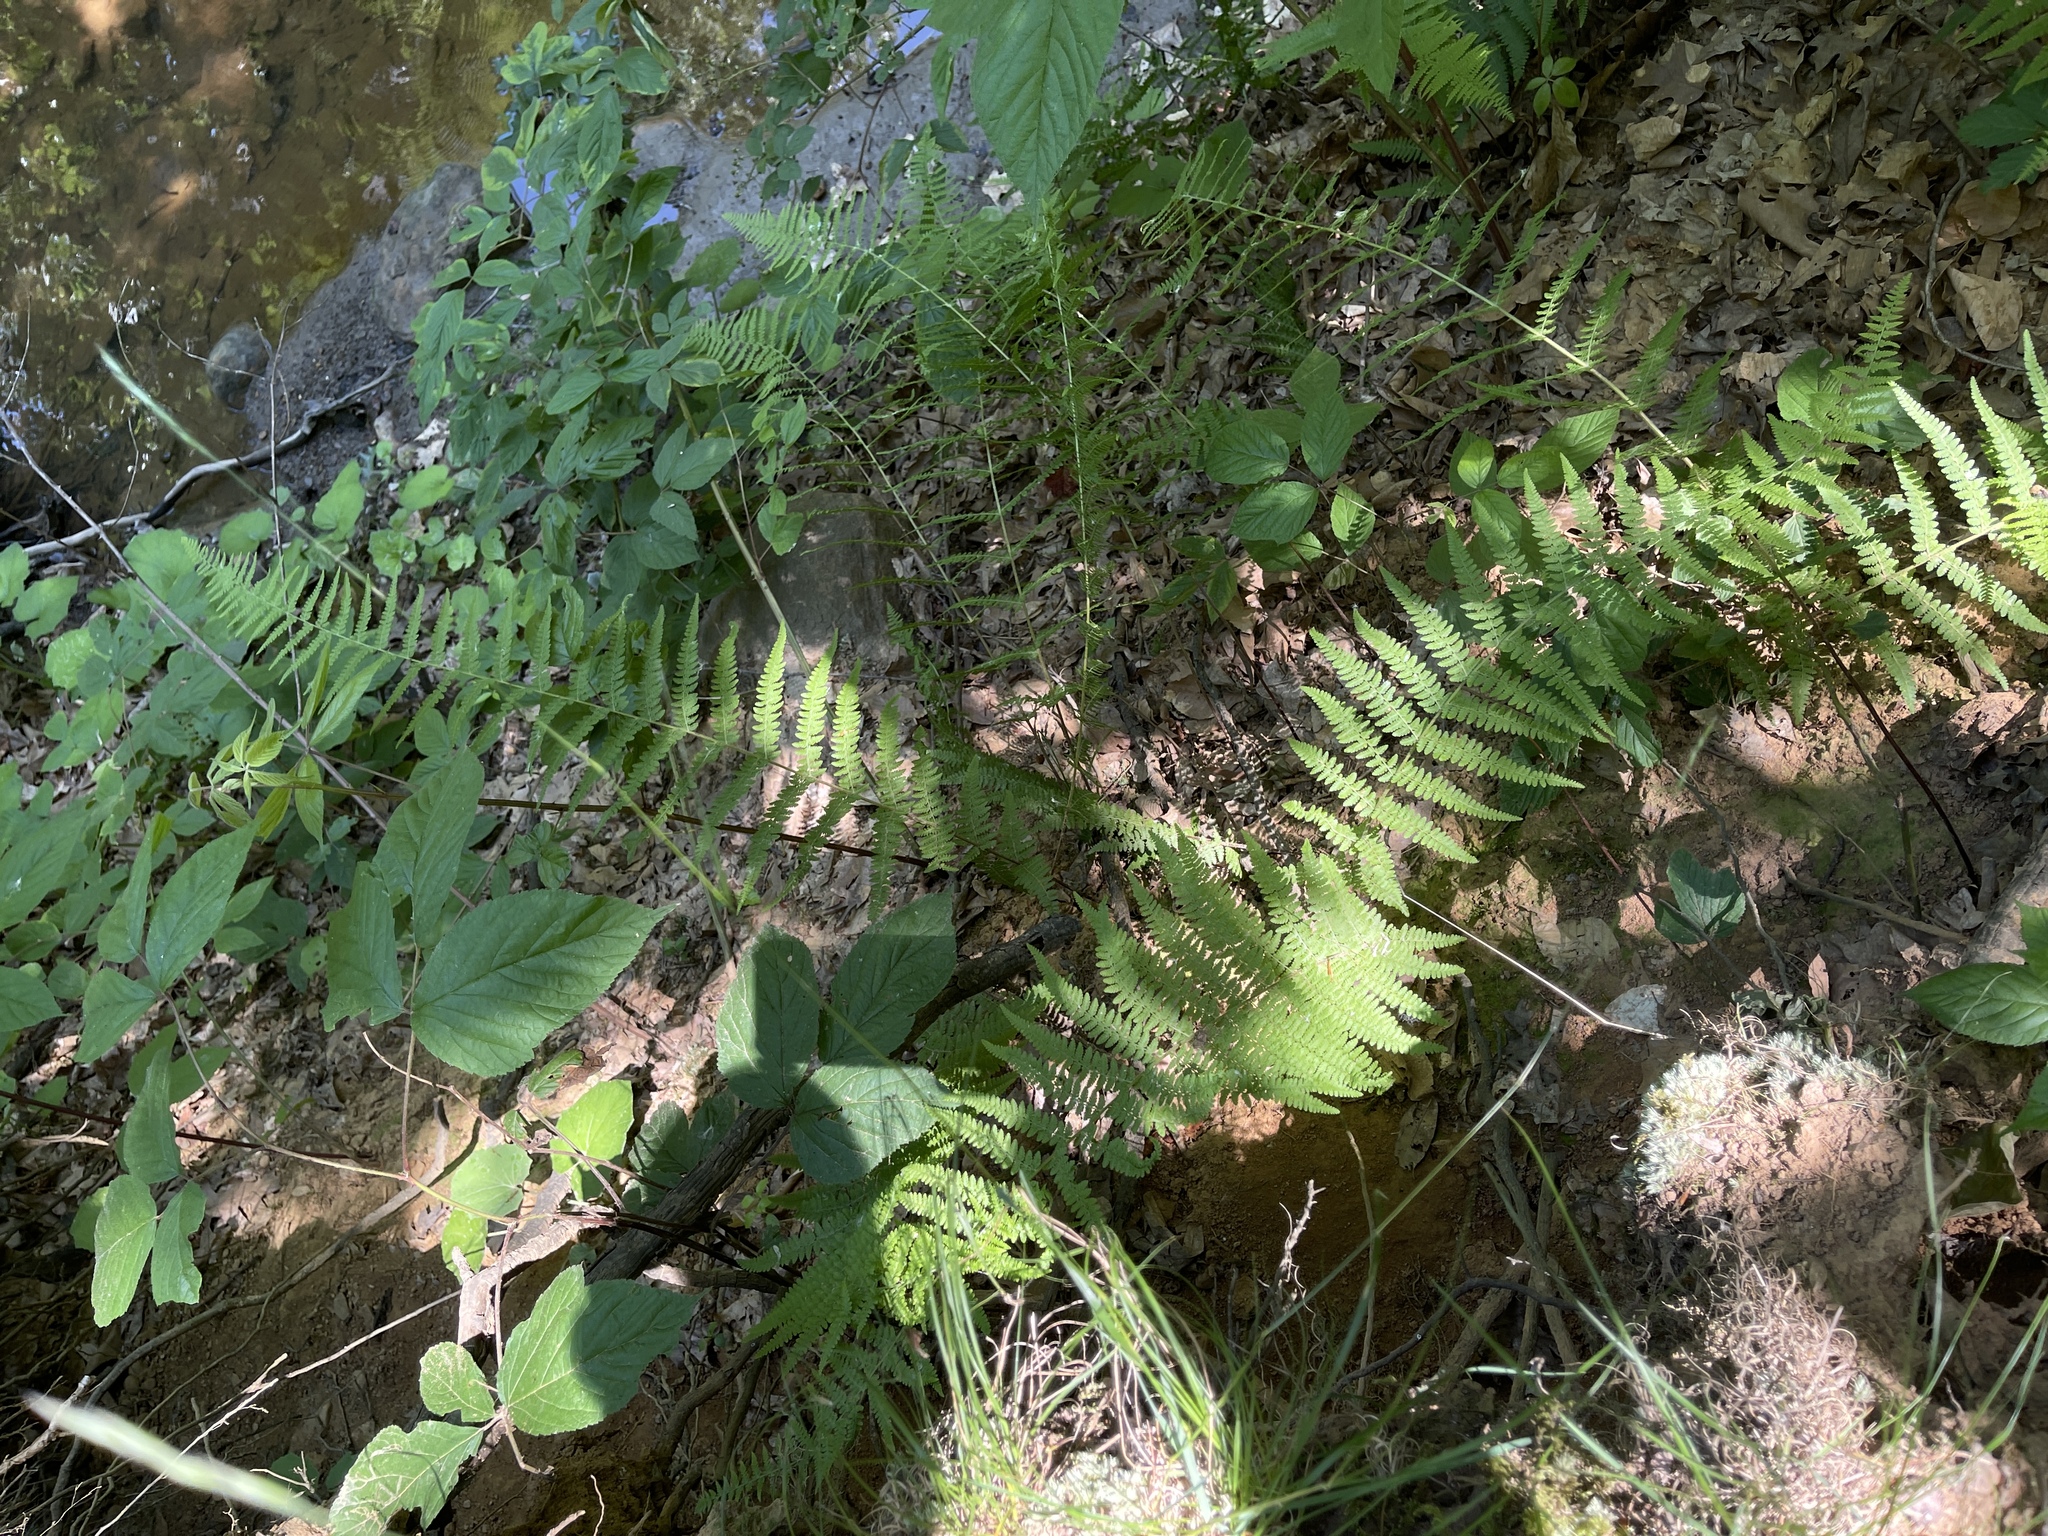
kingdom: Plantae
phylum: Tracheophyta
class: Polypodiopsida
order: Polypodiales
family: Dennstaedtiaceae
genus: Sitobolium
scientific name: Sitobolium punctilobum
